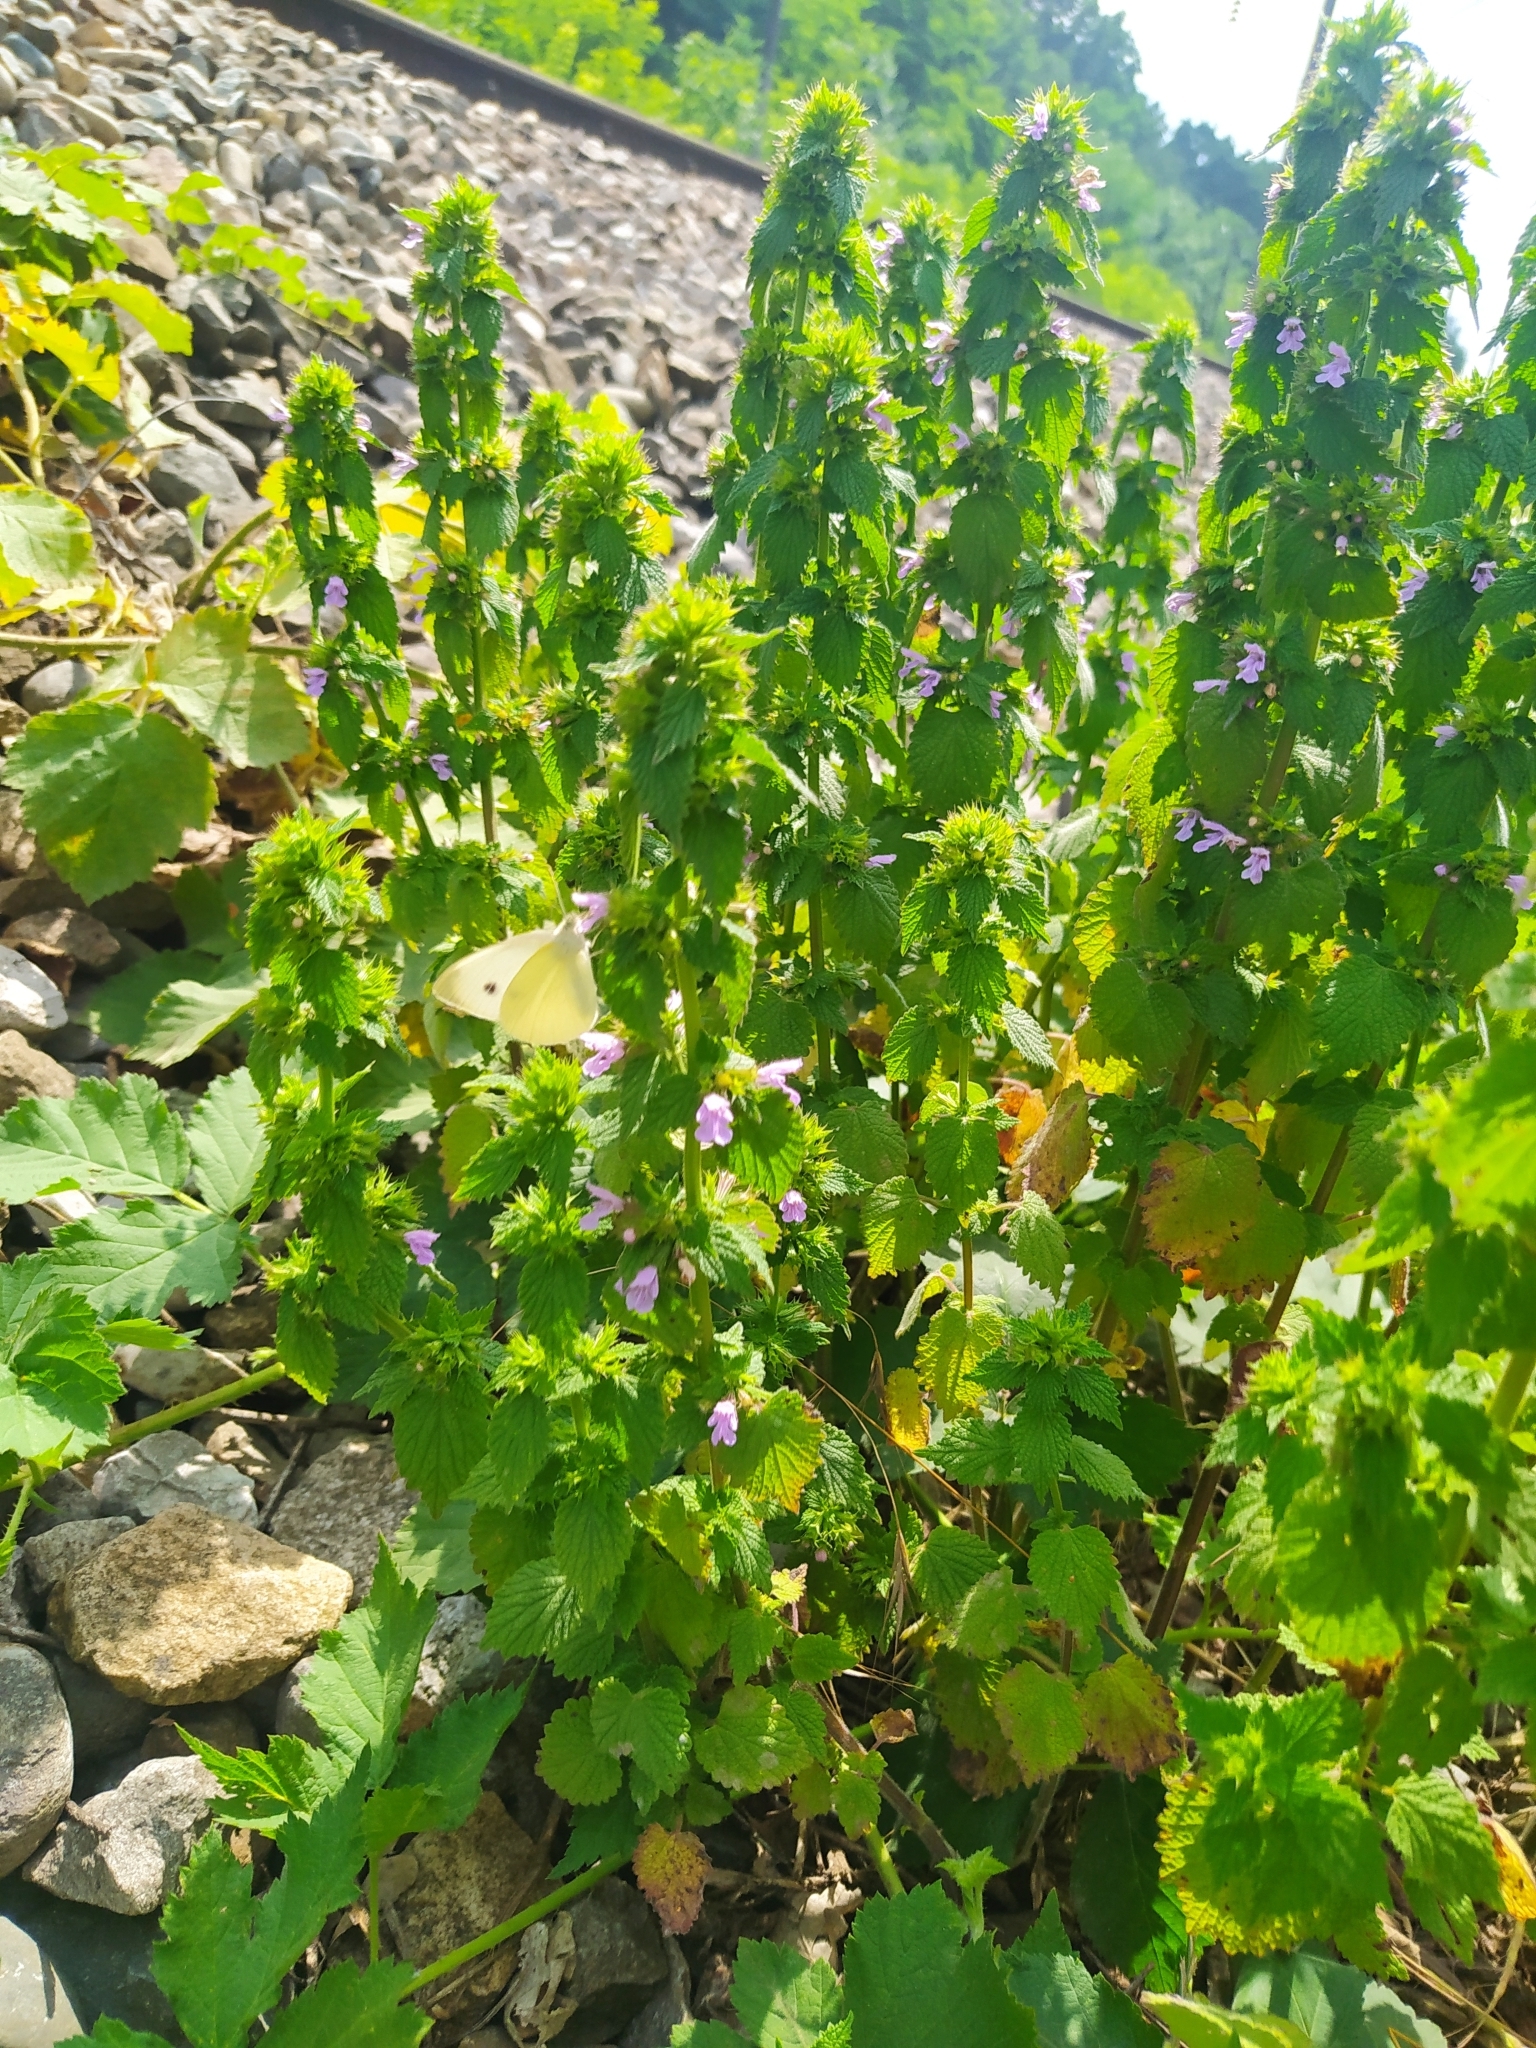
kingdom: Plantae
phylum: Tracheophyta
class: Magnoliopsida
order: Lamiales
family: Lamiaceae
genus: Ballota
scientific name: Ballota nigra
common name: Black horehound
